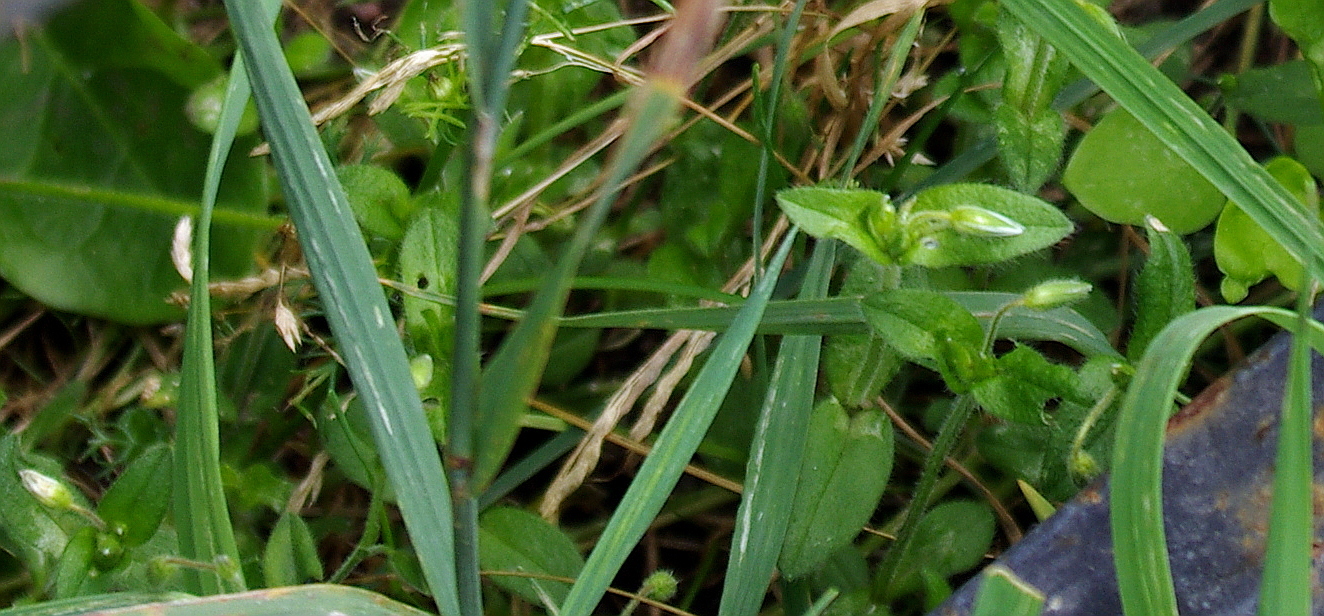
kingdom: Plantae
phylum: Tracheophyta
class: Magnoliopsida
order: Caryophyllales
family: Caryophyllaceae
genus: Cerastium
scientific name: Cerastium holosteoides
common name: Big chickweed
